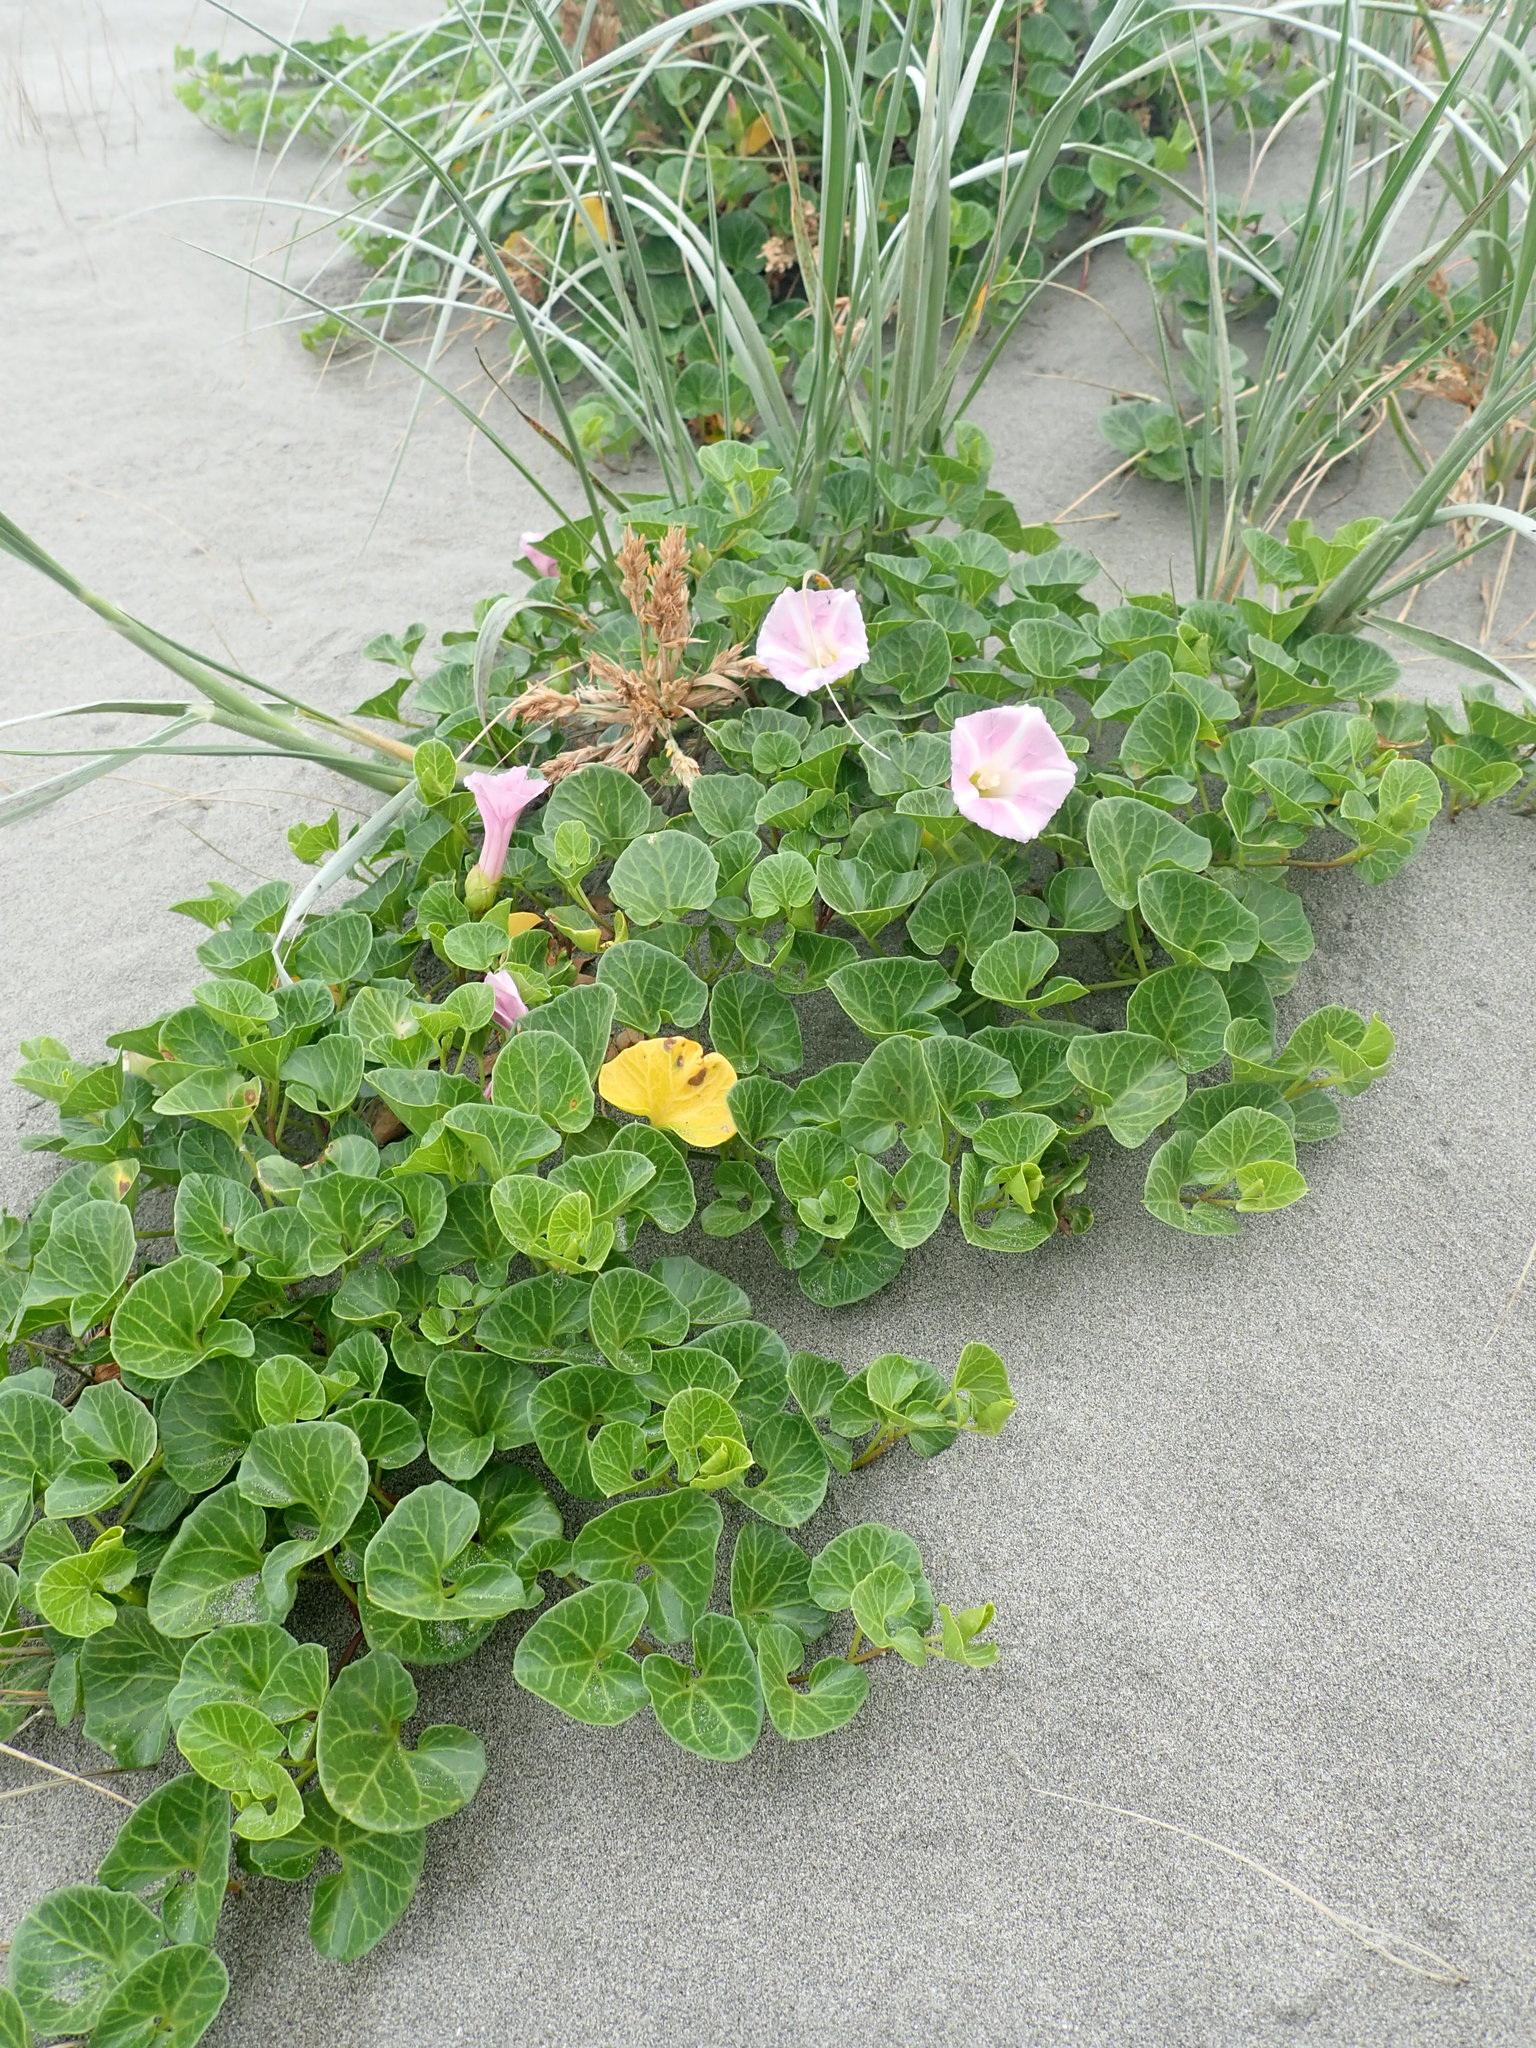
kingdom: Plantae
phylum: Tracheophyta
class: Magnoliopsida
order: Solanales
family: Convolvulaceae
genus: Calystegia
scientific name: Calystegia soldanella
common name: Sea bindweed
